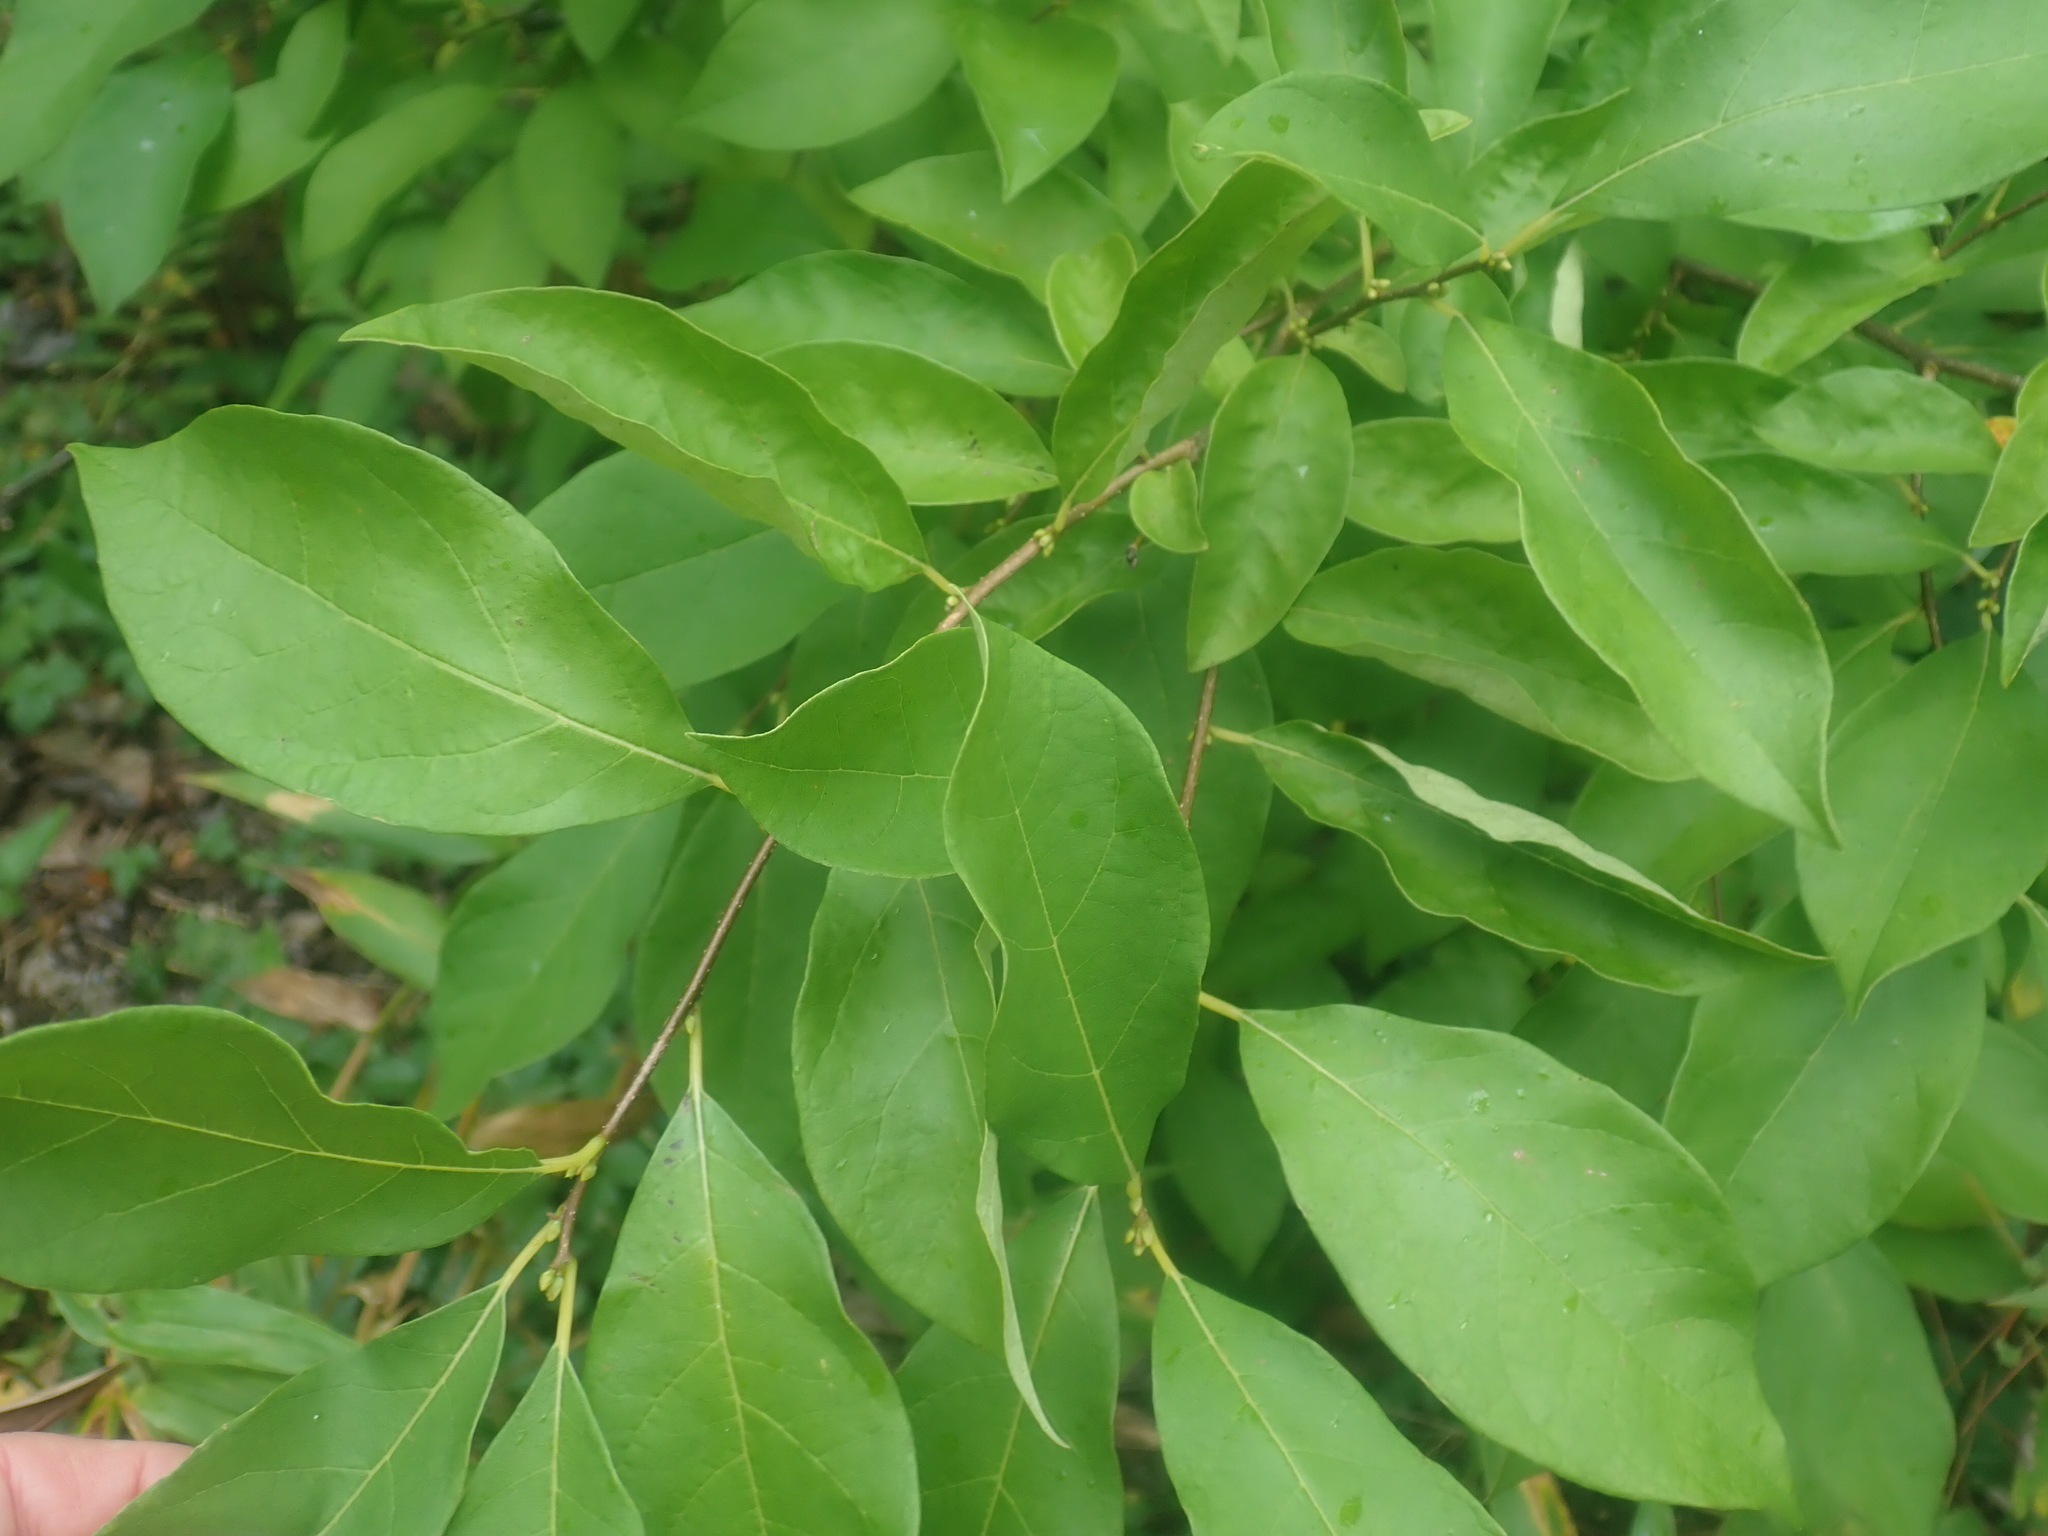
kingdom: Plantae
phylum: Tracheophyta
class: Magnoliopsida
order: Laurales
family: Lauraceae
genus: Lindera
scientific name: Lindera benzoin
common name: Spicebush
